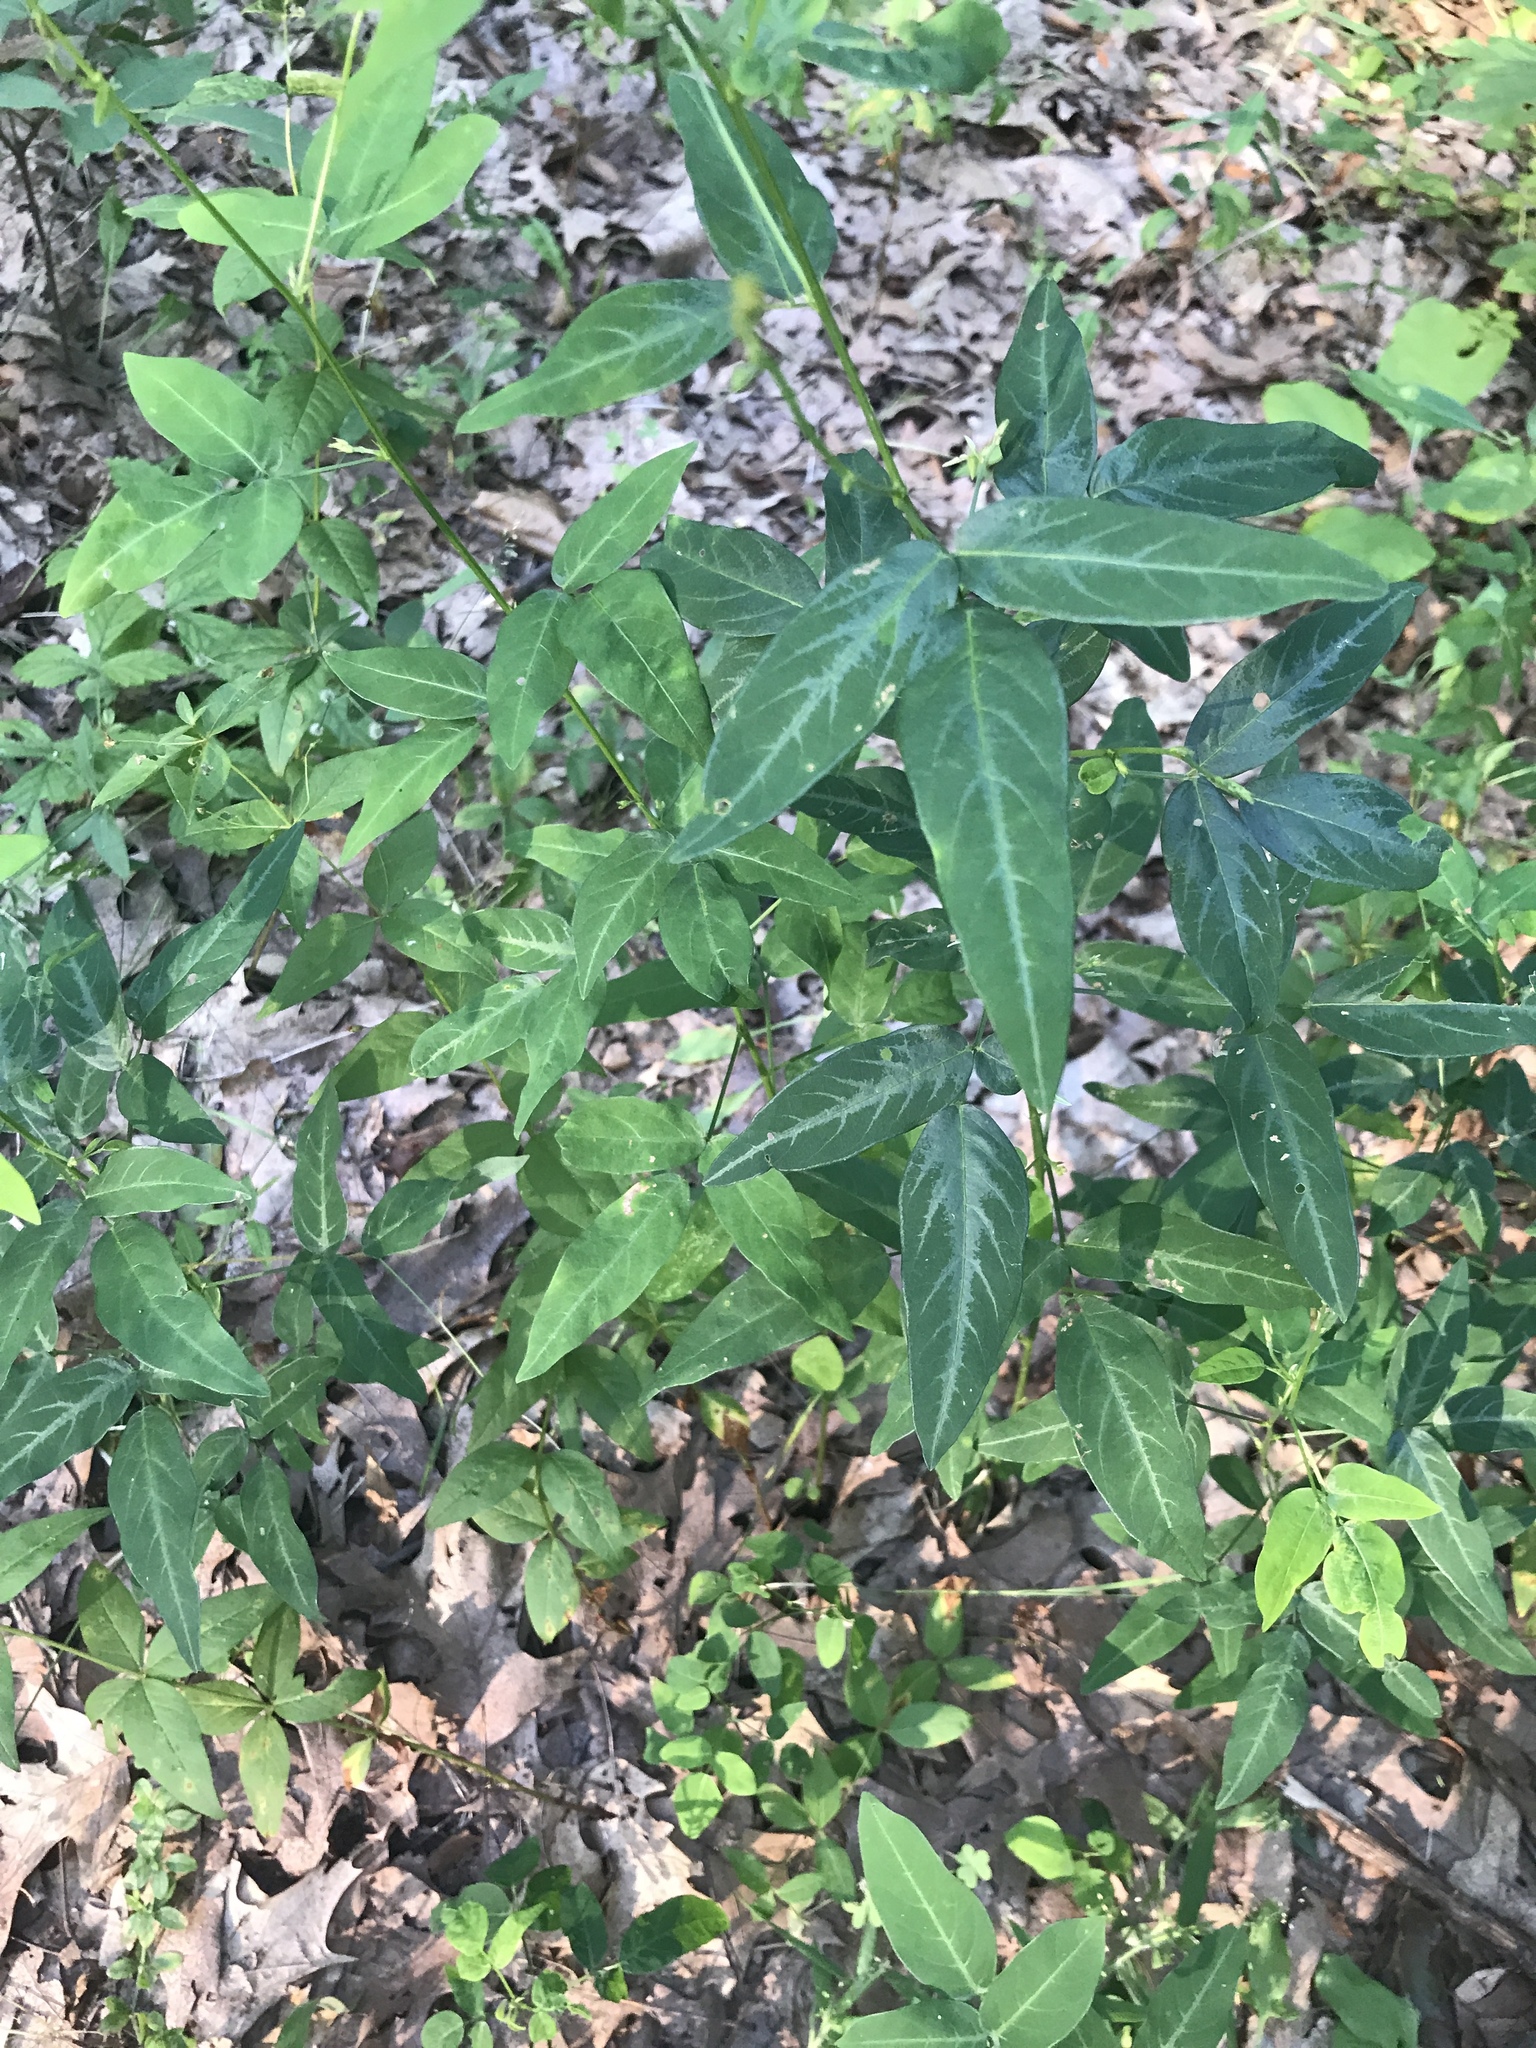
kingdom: Plantae
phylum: Tracheophyta
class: Magnoliopsida
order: Fabales
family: Fabaceae
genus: Desmodium
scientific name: Desmodium paniculatum
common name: Panicled tick-clover
